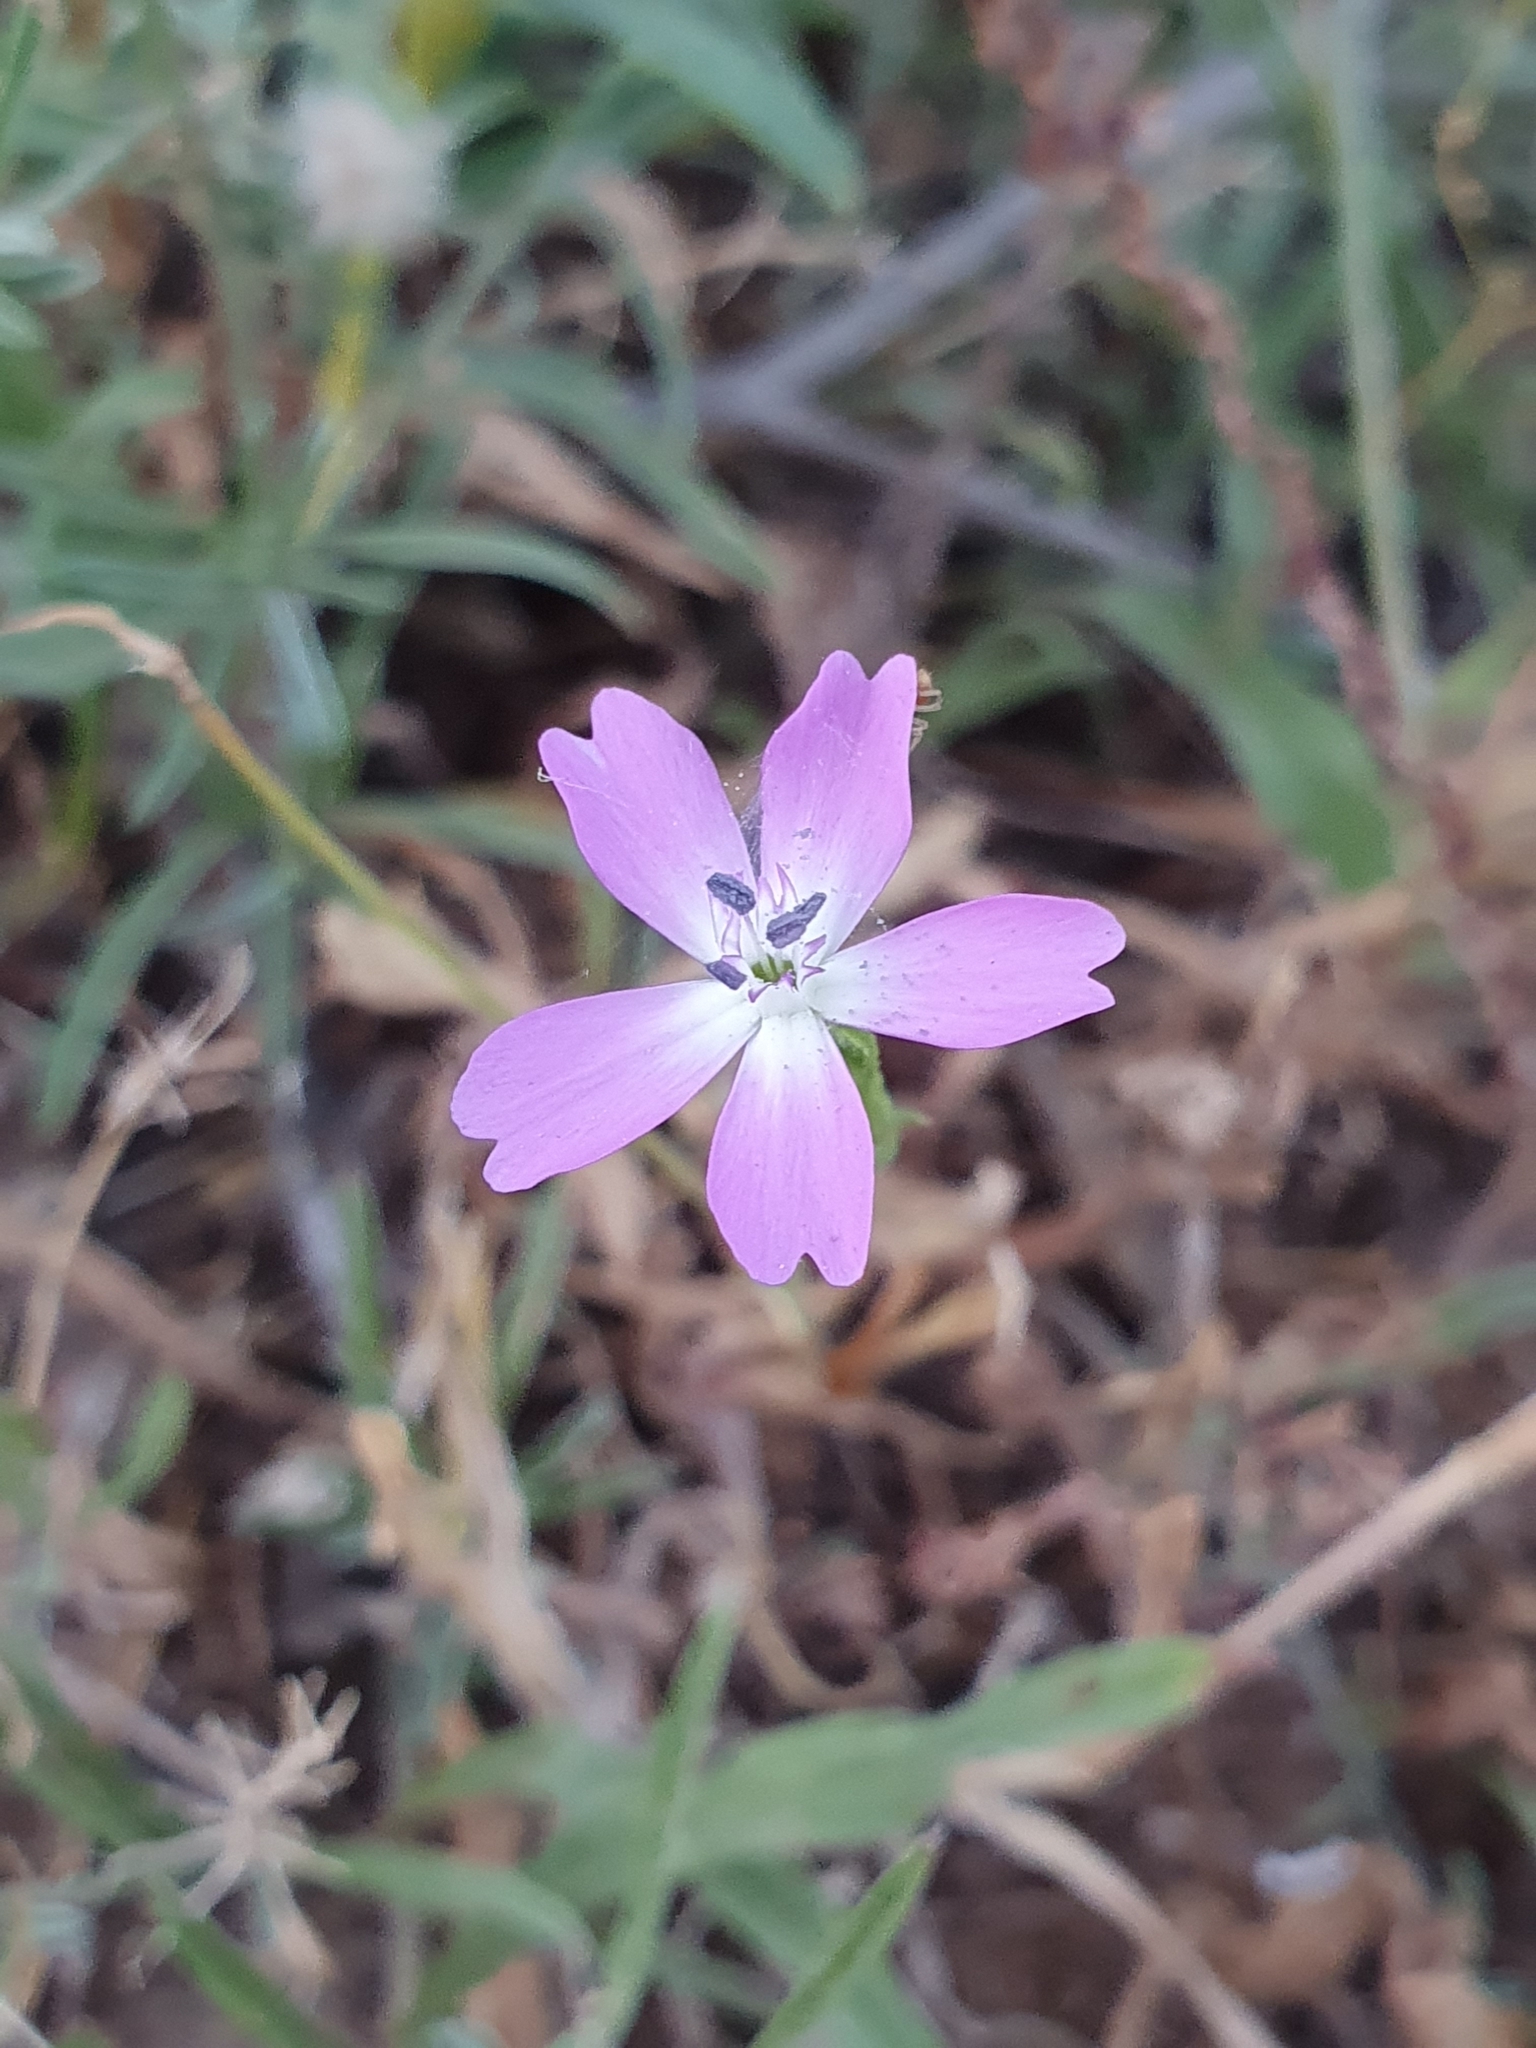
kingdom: Plantae
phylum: Tracheophyta
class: Magnoliopsida
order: Caryophyllales
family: Caryophyllaceae
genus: Eudianthe
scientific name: Eudianthe coeli-rosa
